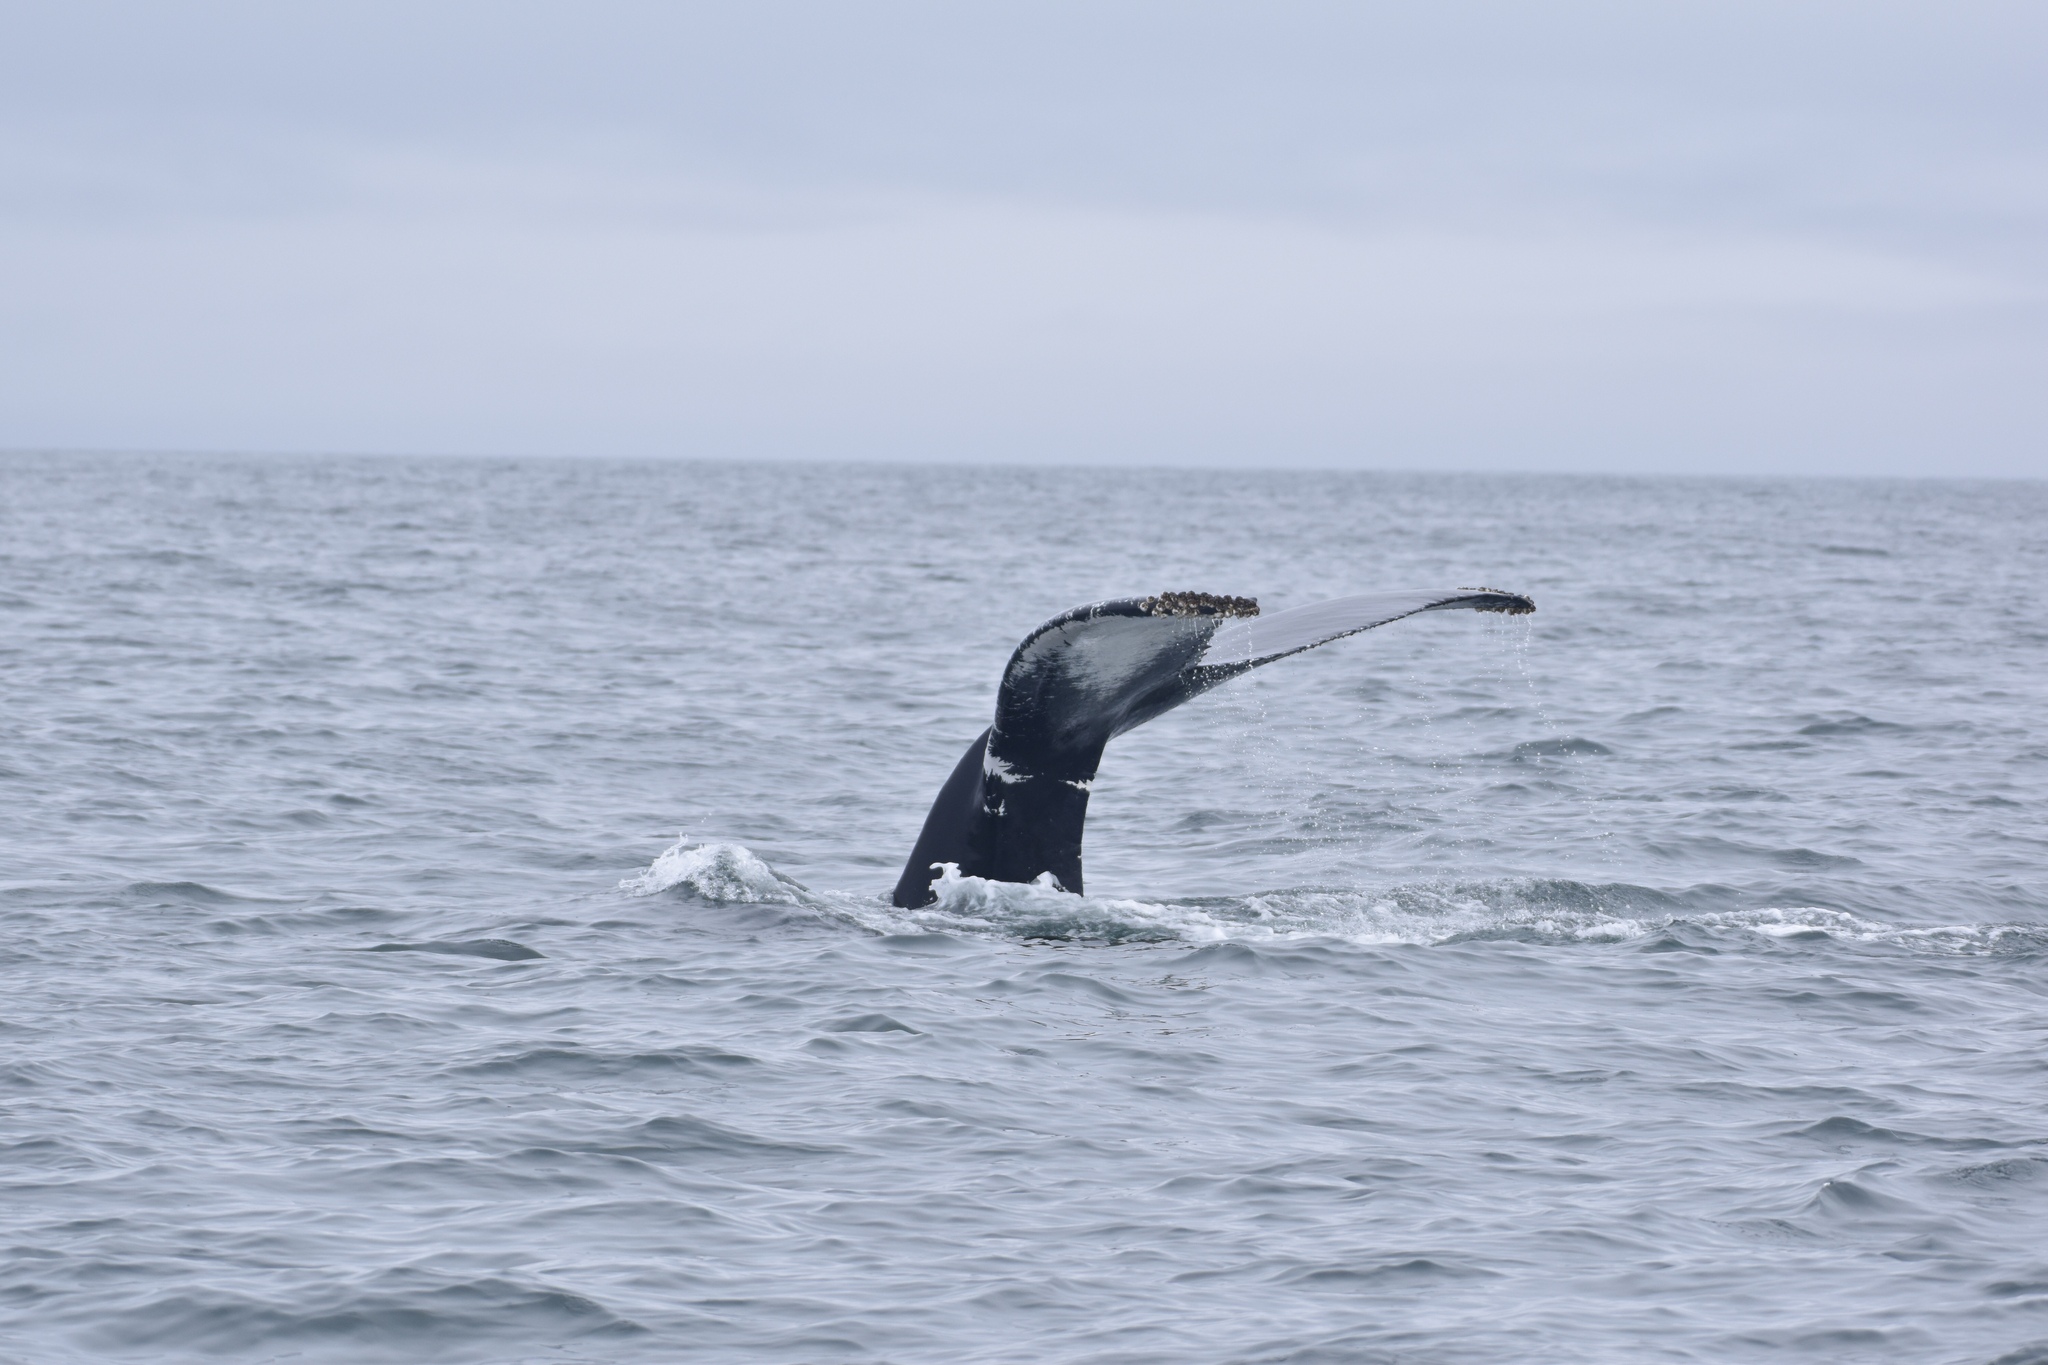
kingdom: Animalia
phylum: Chordata
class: Mammalia
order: Cetacea
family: Balaenopteridae
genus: Megaptera
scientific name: Megaptera novaeangliae
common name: Humpback whale
